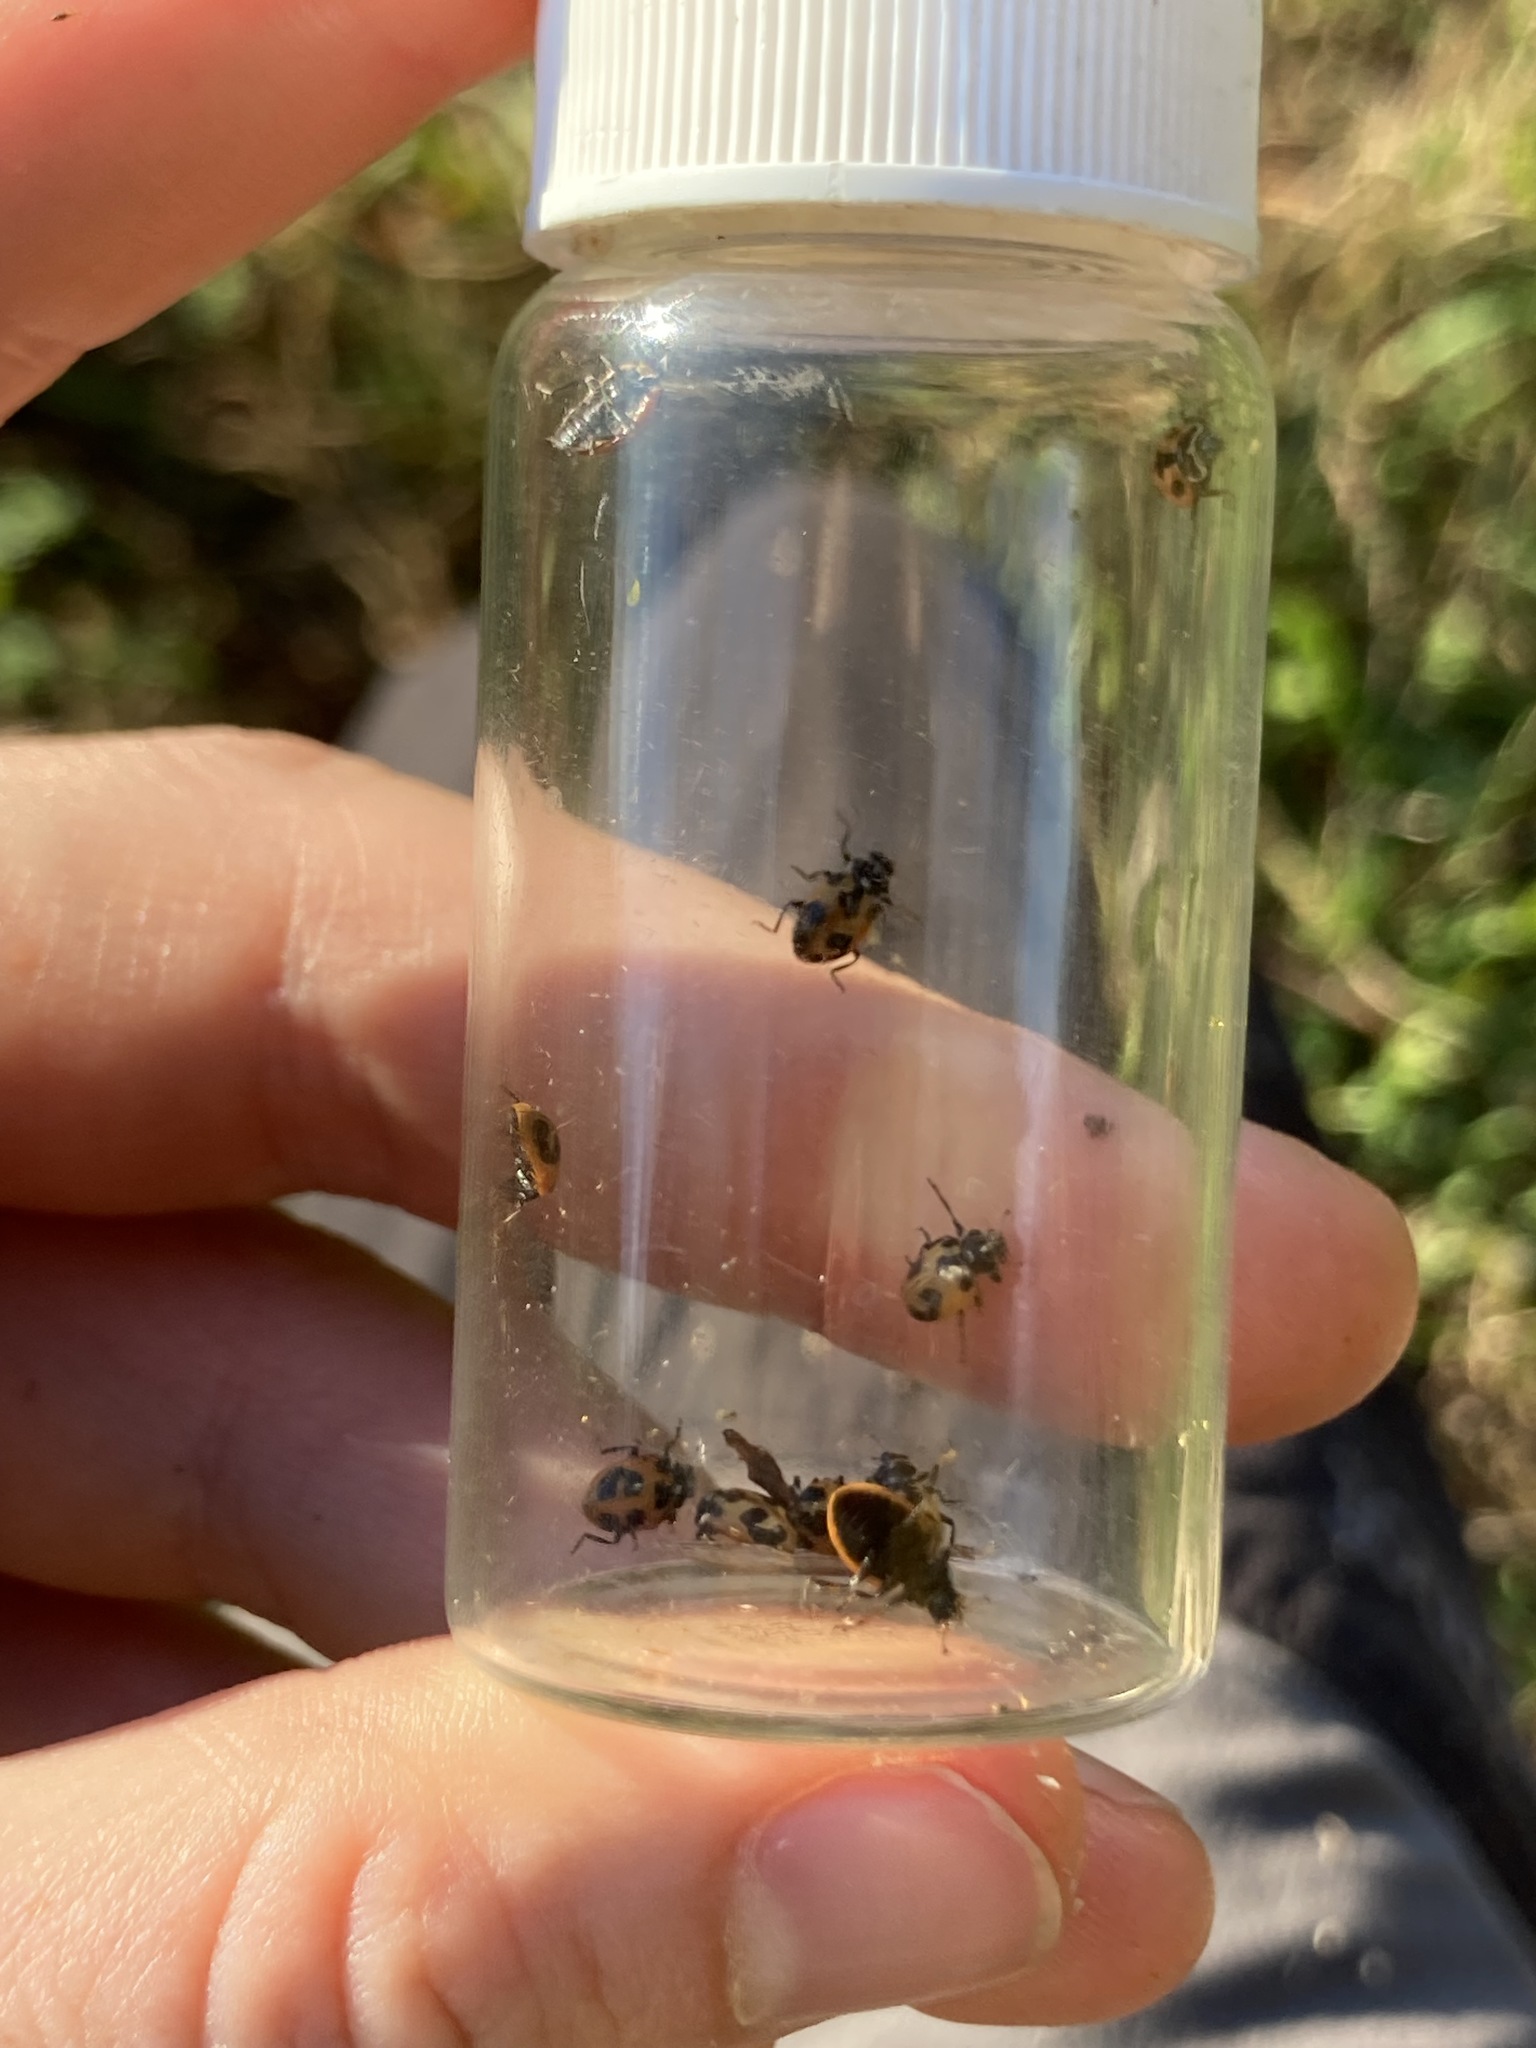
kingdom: Animalia
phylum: Arthropoda
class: Insecta
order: Coleoptera
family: Coccinellidae
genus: Hippodamia
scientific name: Hippodamia parenthesis
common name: Parenthesis lady beetle
